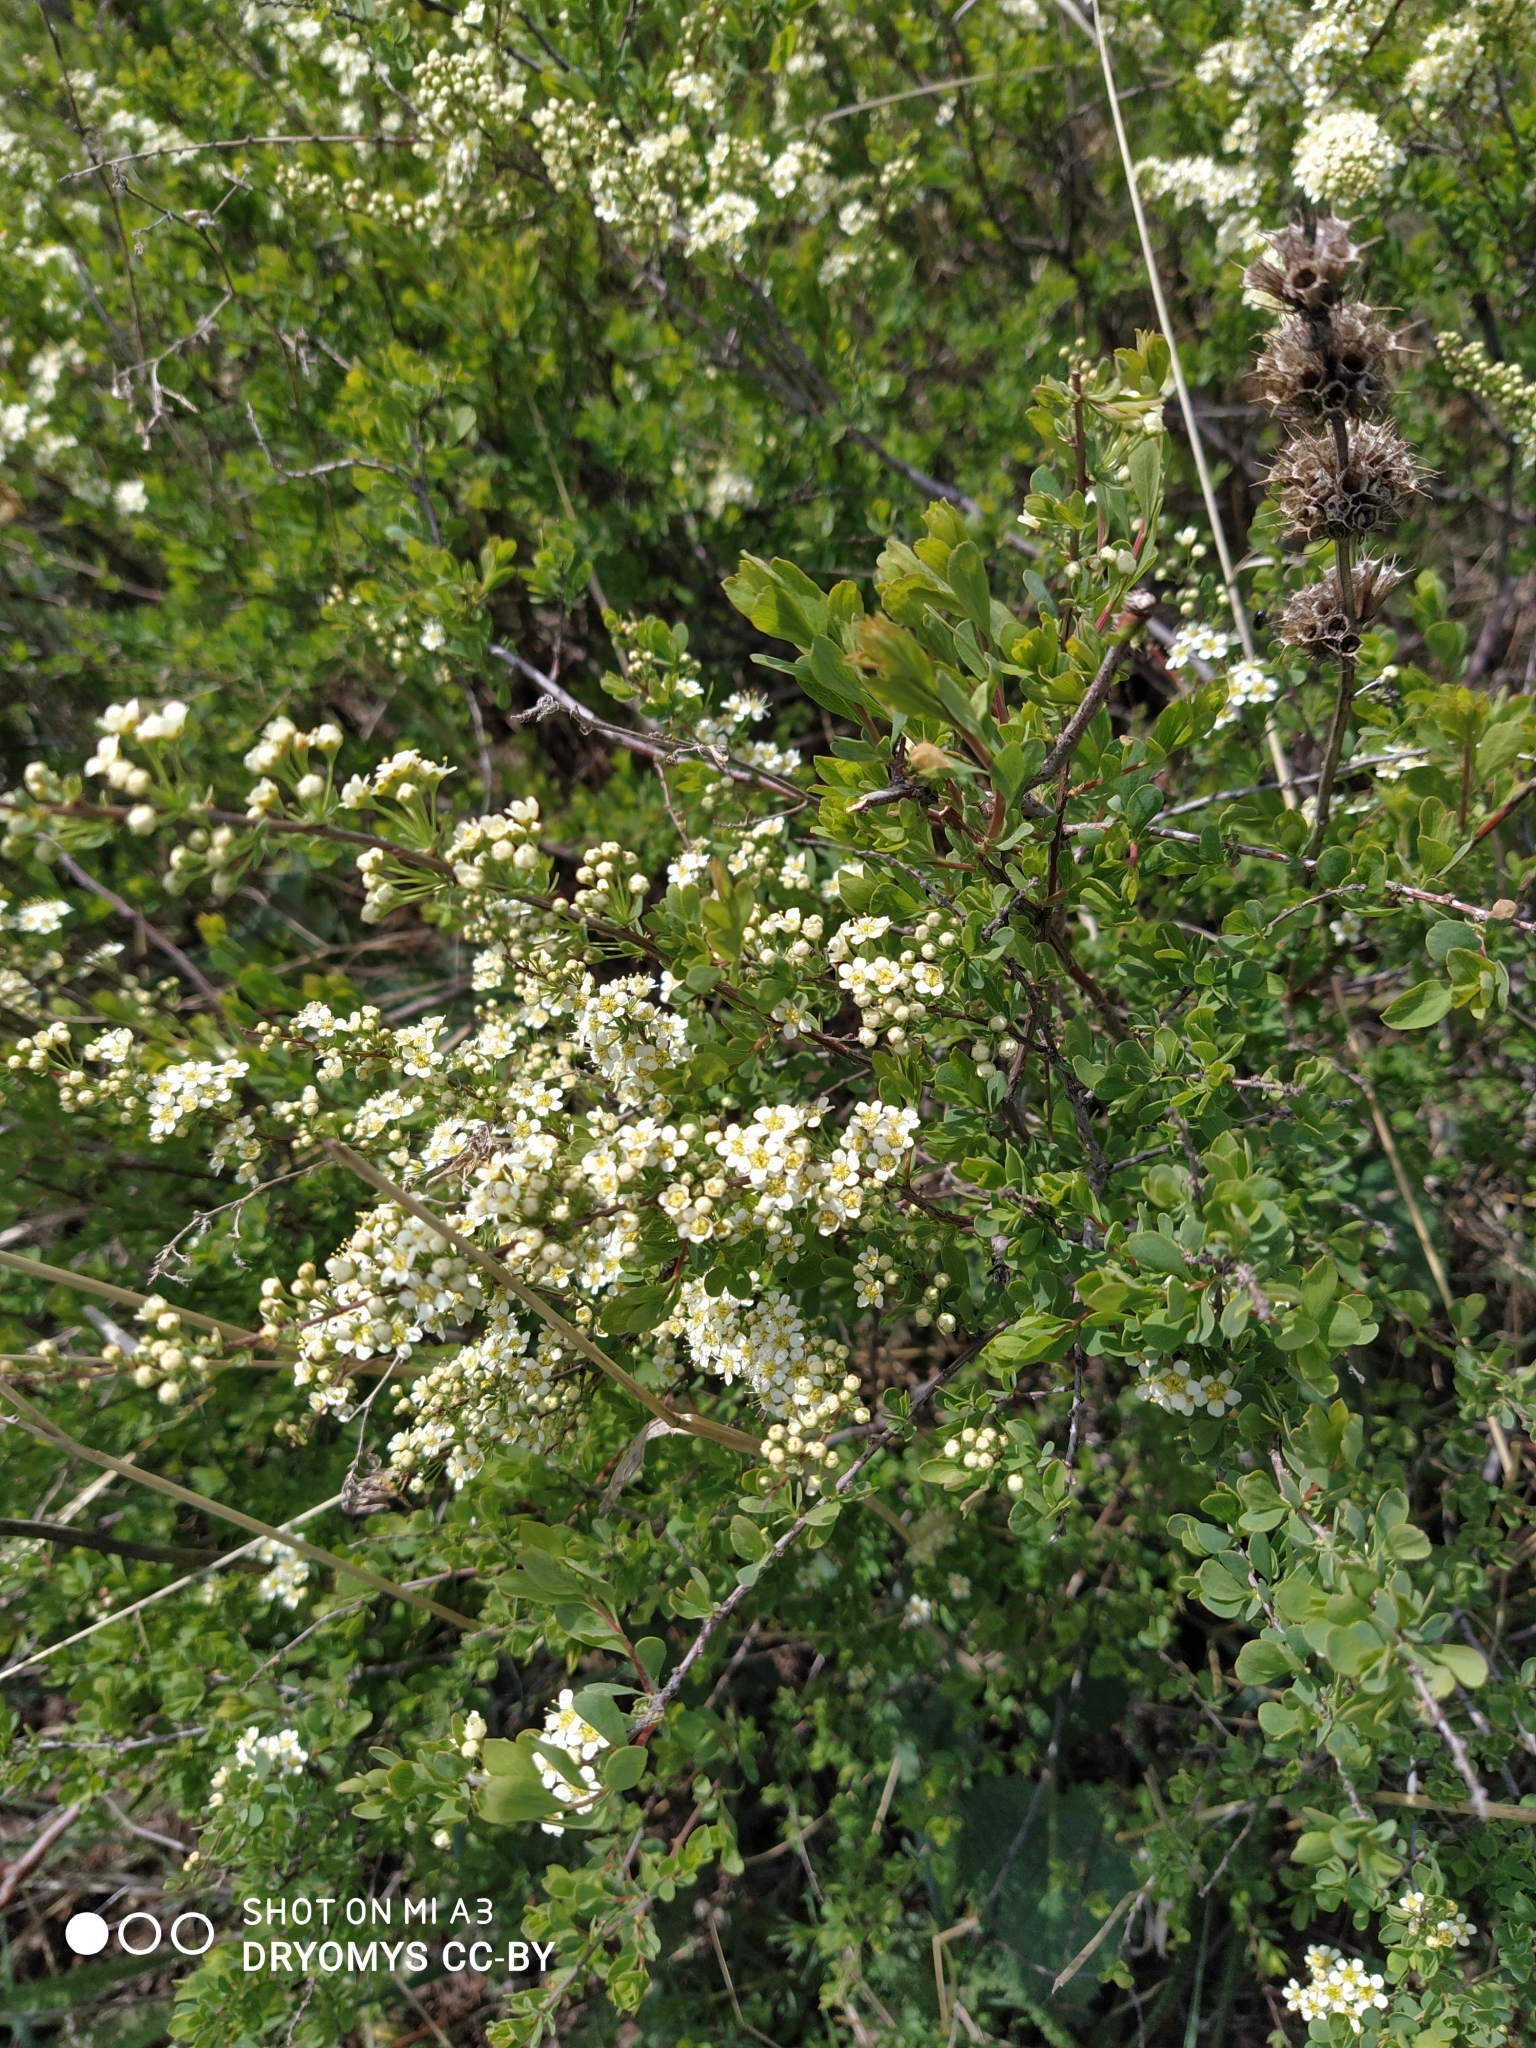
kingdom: Plantae
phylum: Tracheophyta
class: Magnoliopsida
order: Rosales
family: Rosaceae
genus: Spiraea
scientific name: Spiraea hypericifolia
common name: Iberian spirea
